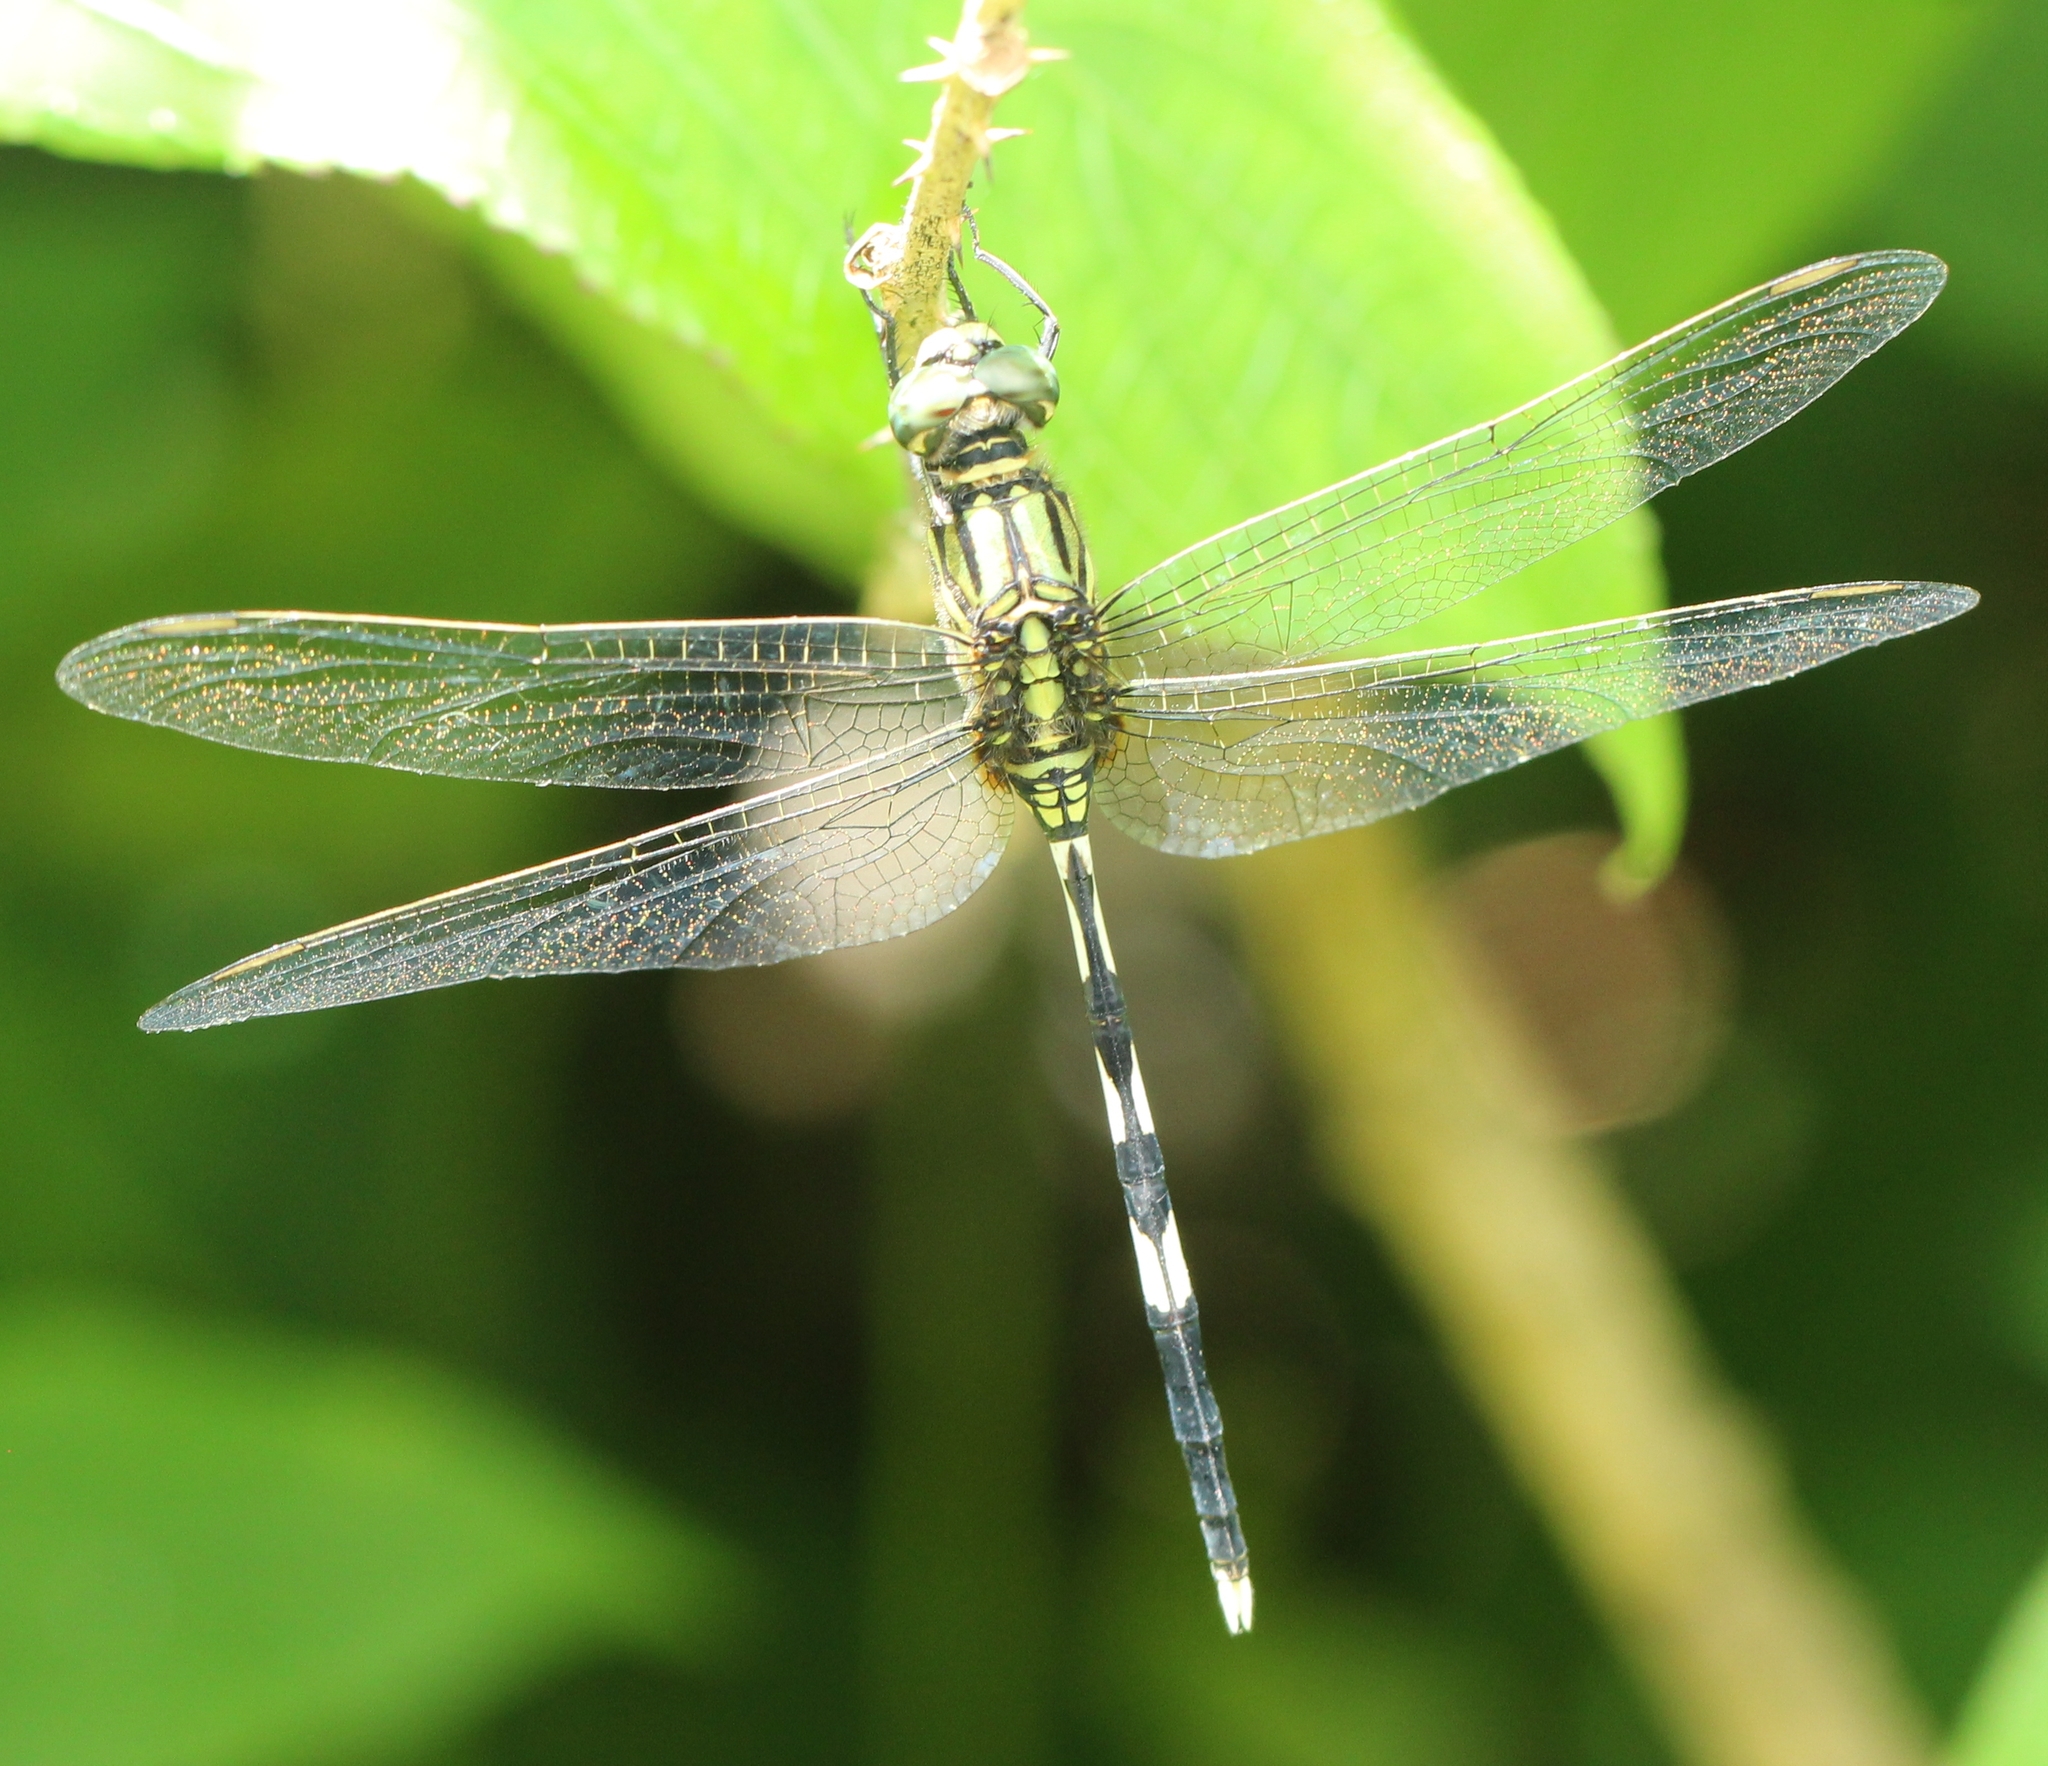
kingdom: Animalia
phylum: Arthropoda
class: Insecta
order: Odonata
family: Libellulidae
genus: Orthetrum
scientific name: Orthetrum sabina
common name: Slender skimmer
